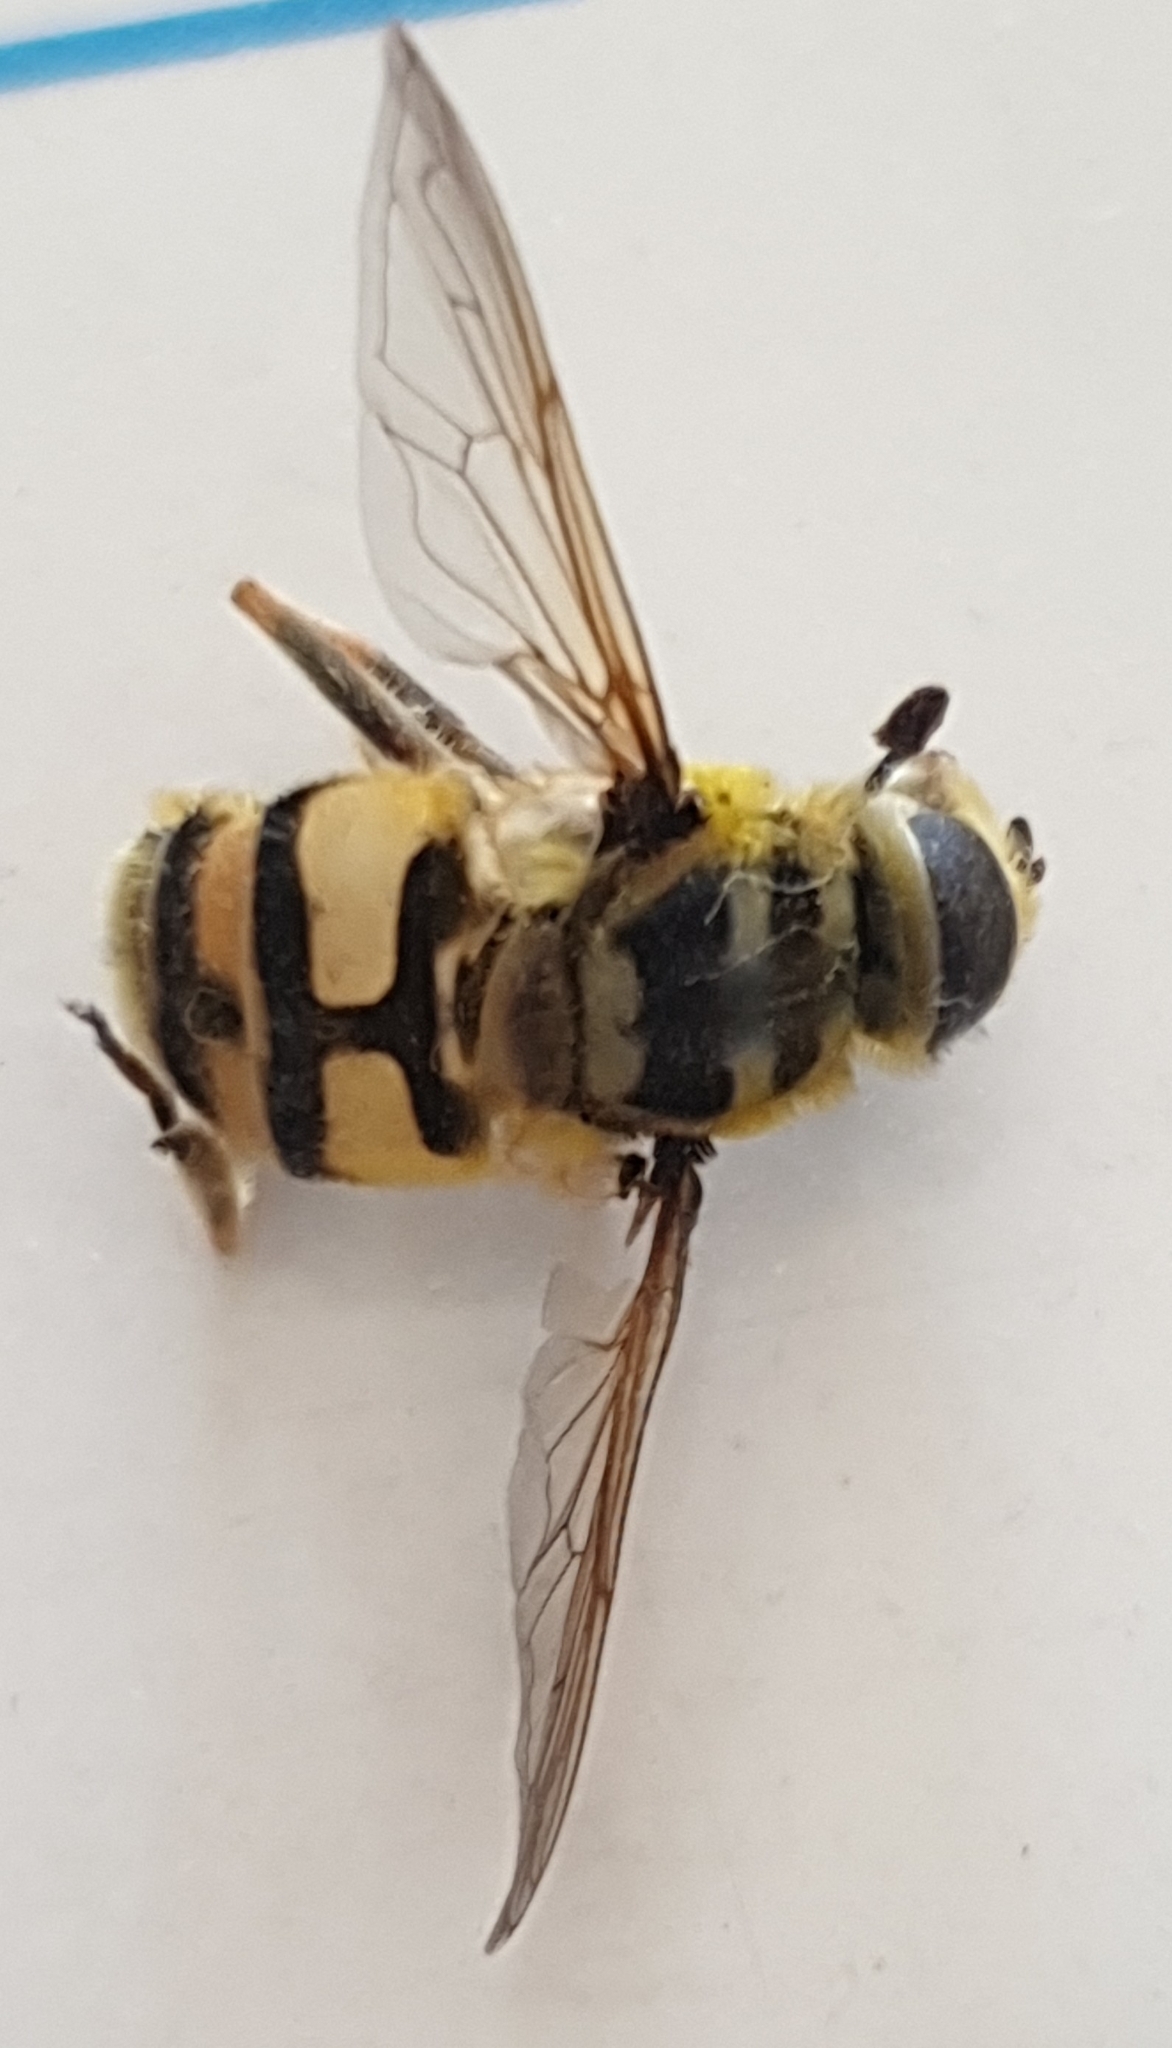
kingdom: Animalia
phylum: Arthropoda
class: Insecta
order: Diptera
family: Syrphidae
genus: Myathropa
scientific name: Myathropa florea
